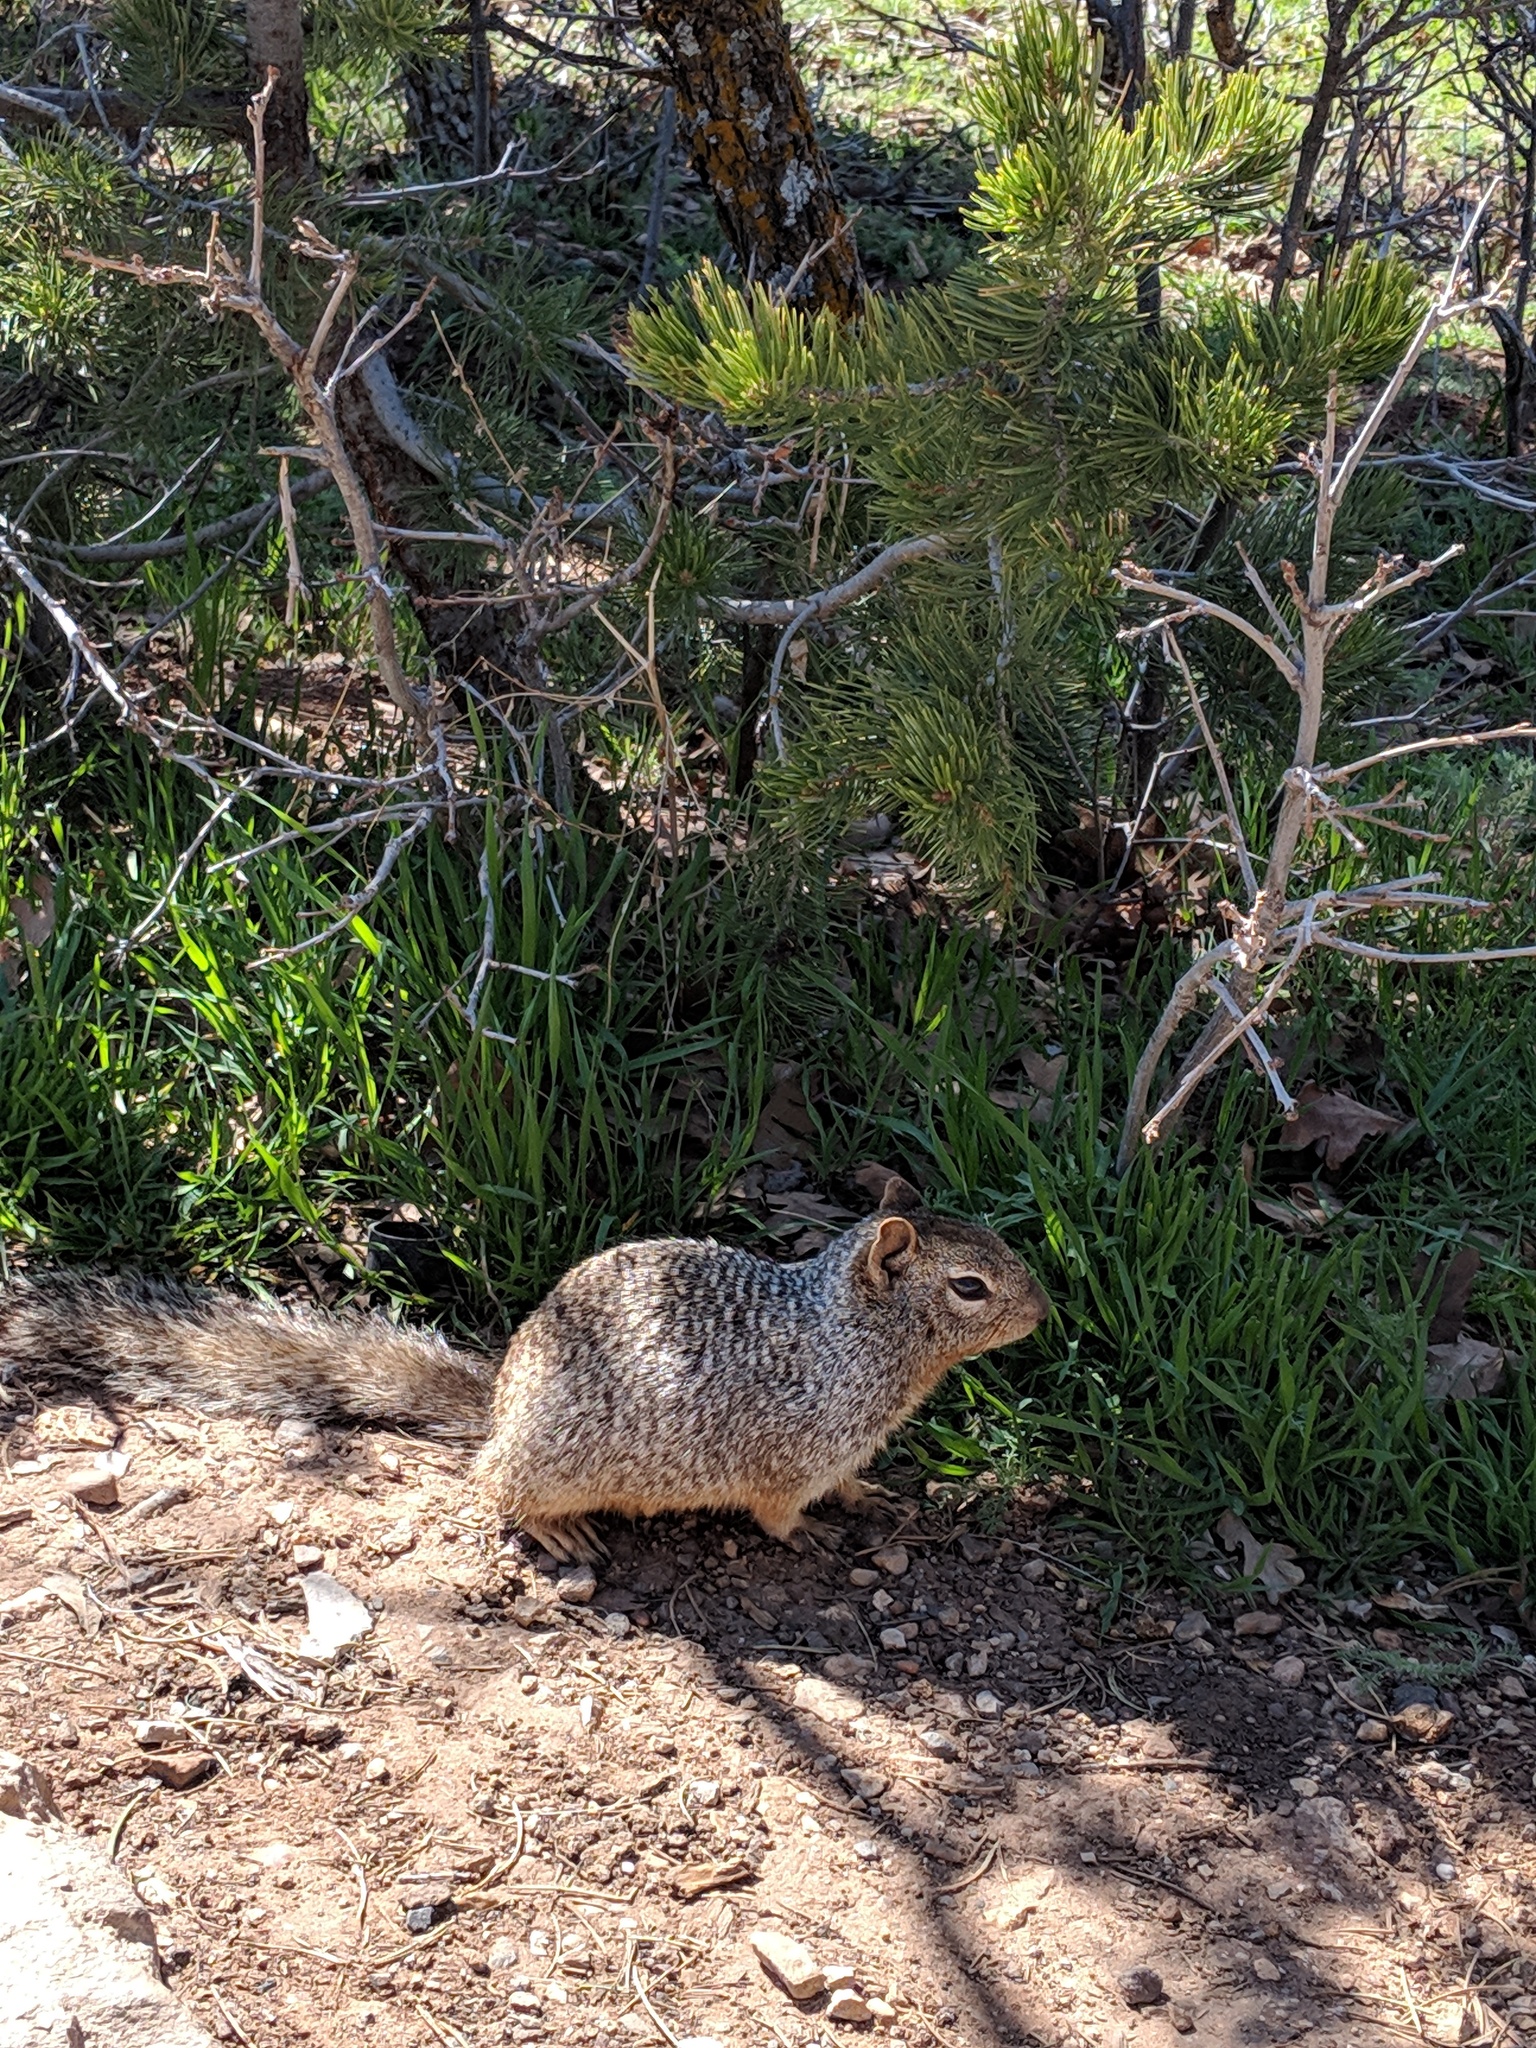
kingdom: Animalia
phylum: Chordata
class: Mammalia
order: Rodentia
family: Sciuridae
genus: Otospermophilus
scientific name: Otospermophilus variegatus
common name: Rock squirrel
